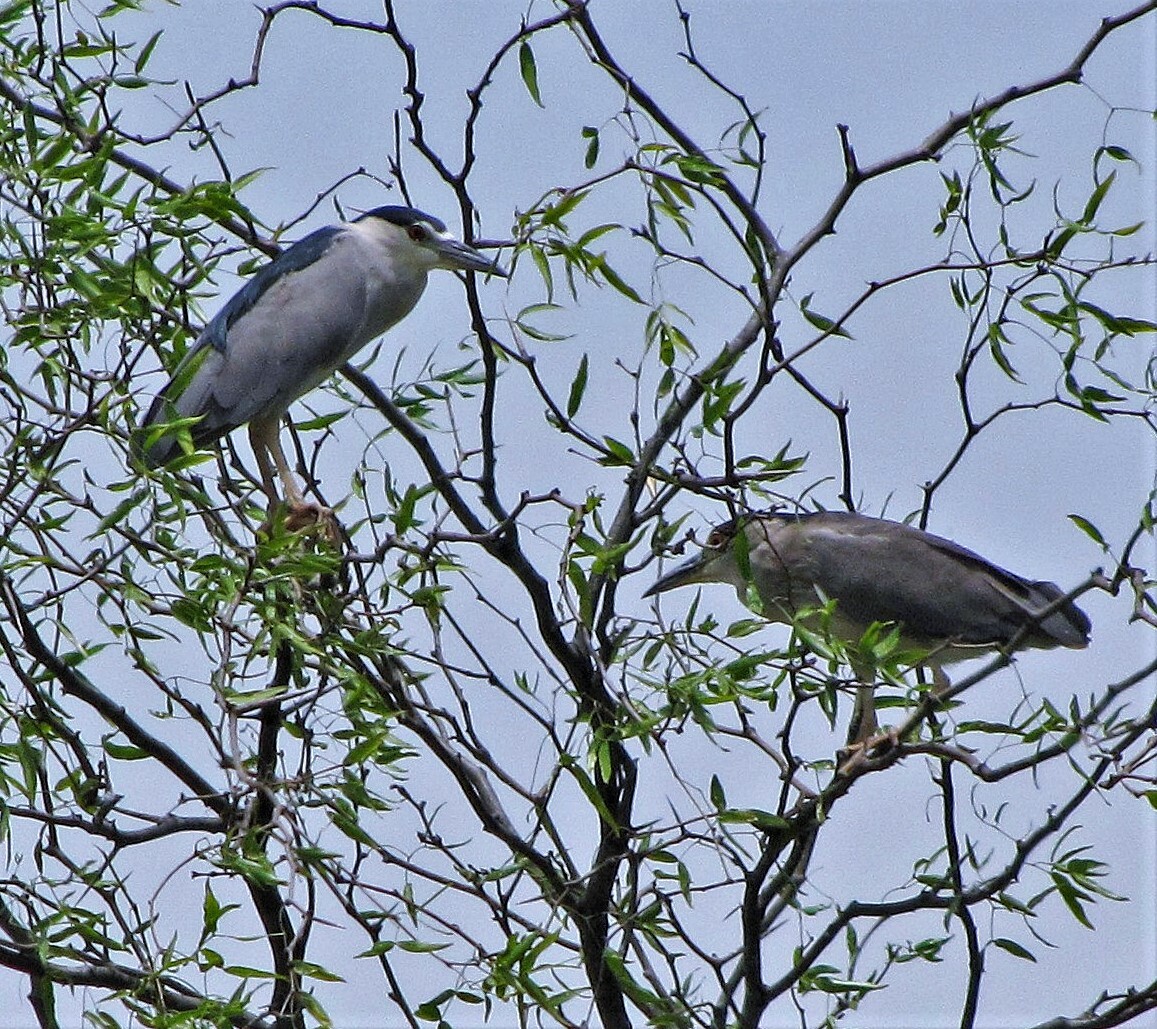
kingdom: Animalia
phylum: Chordata
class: Aves
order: Pelecaniformes
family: Ardeidae
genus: Nycticorax
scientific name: Nycticorax nycticorax
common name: Black-crowned night heron
